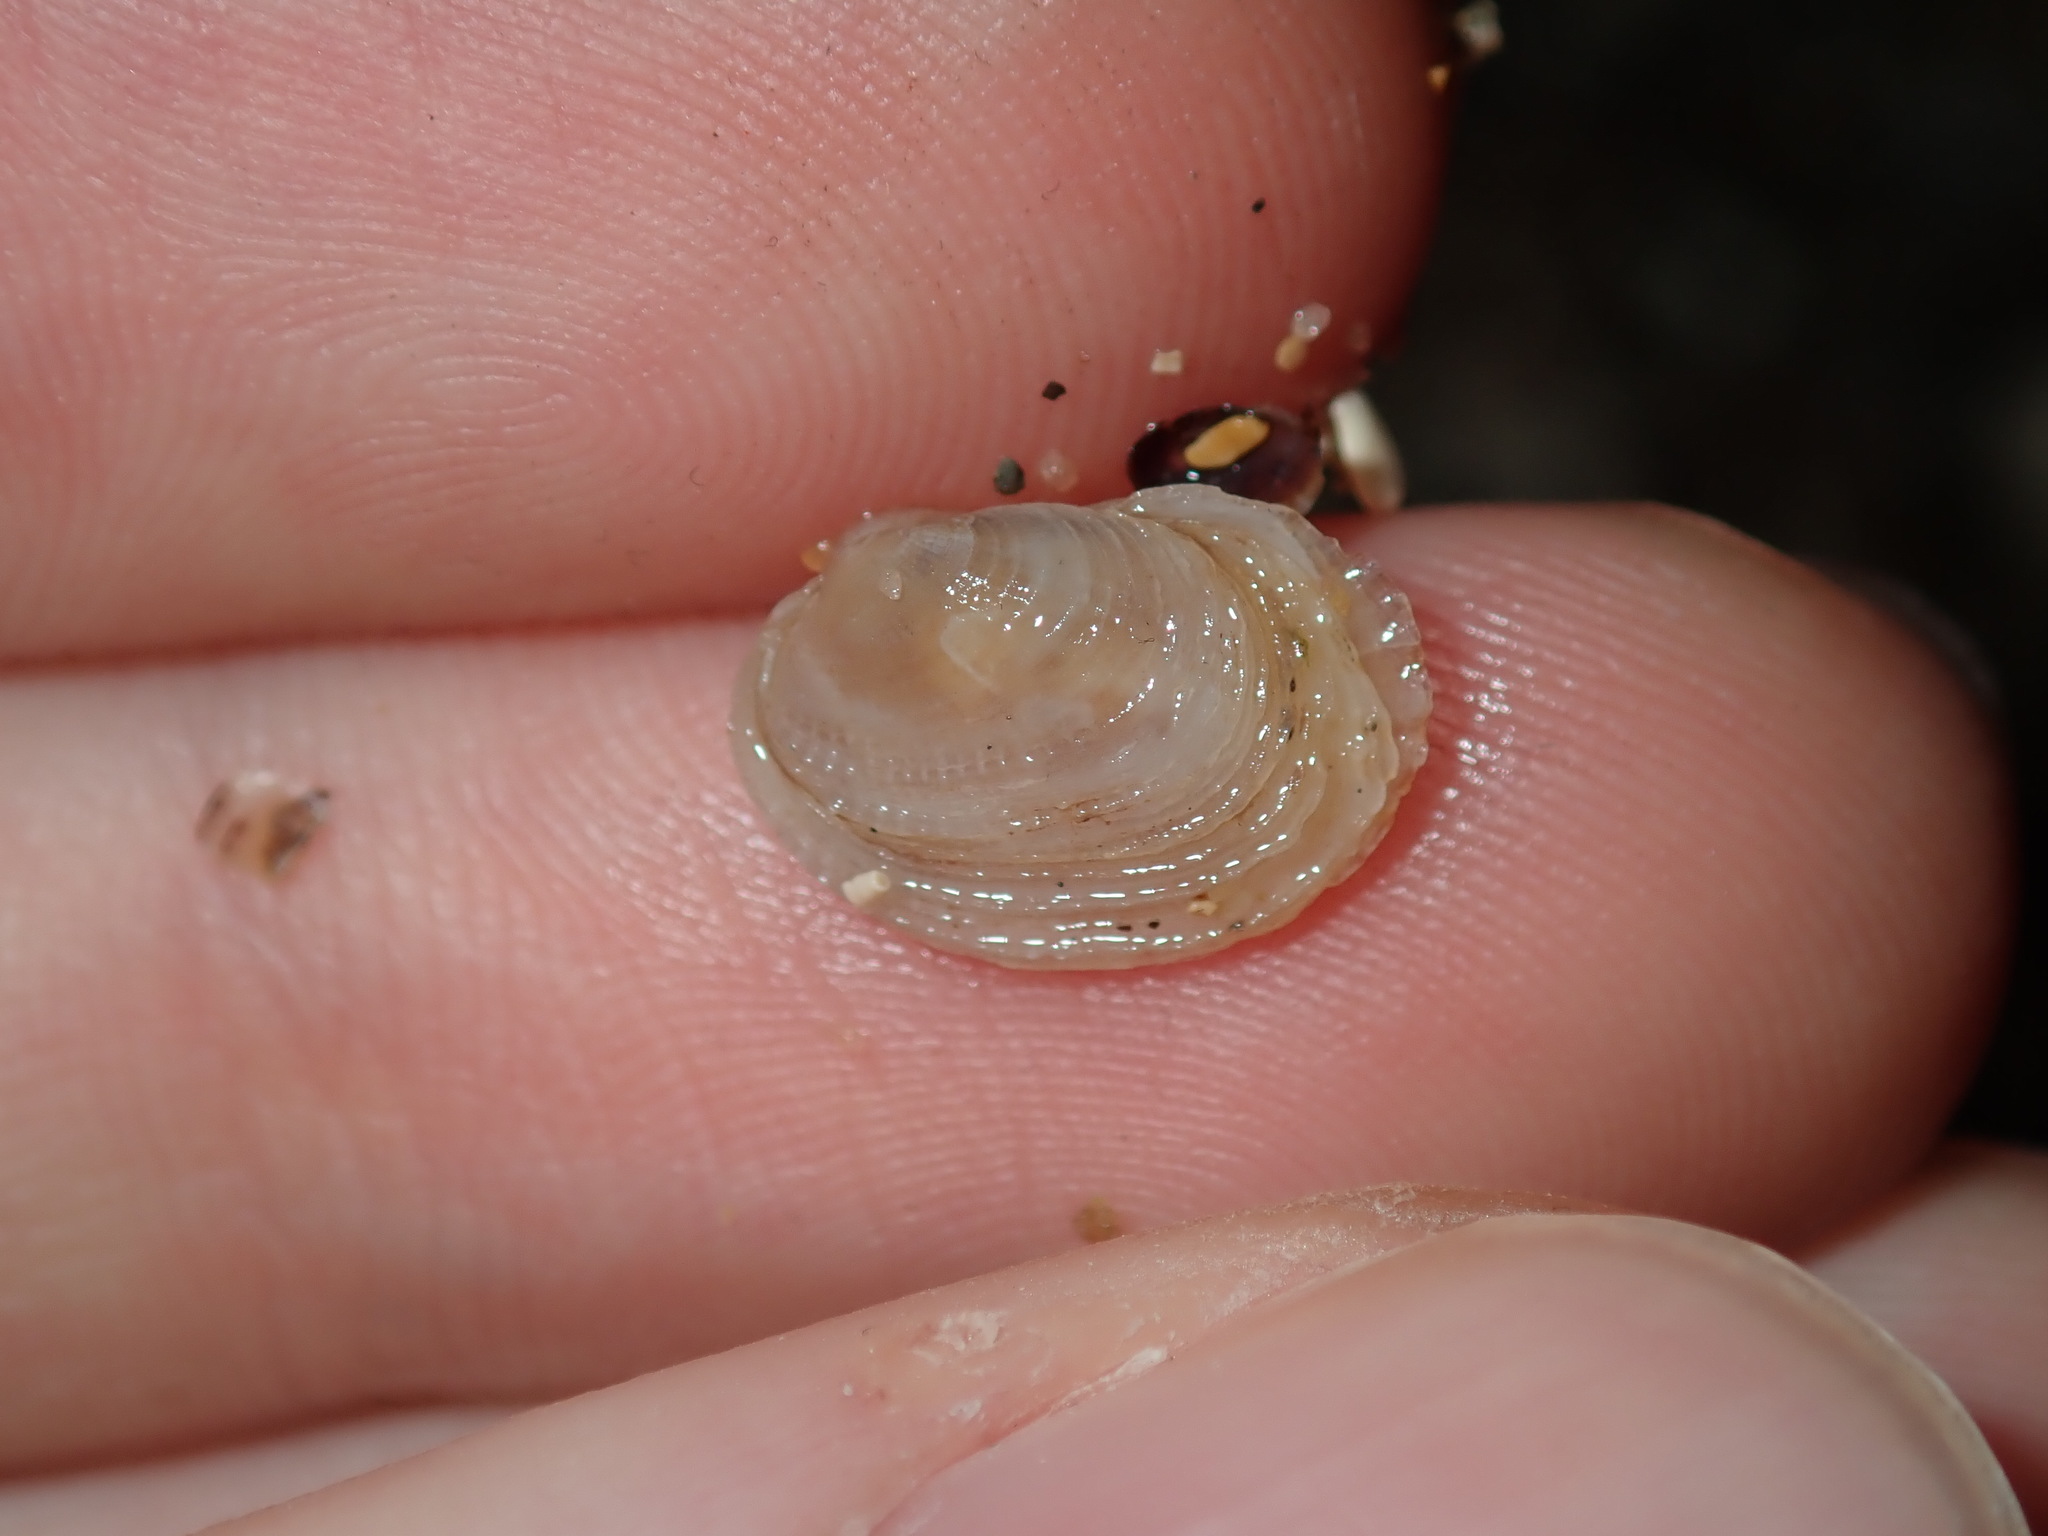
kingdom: Animalia
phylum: Mollusca
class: Bivalvia
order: Venerida
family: Veneridae
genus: Irus
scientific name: Irus crenatus
